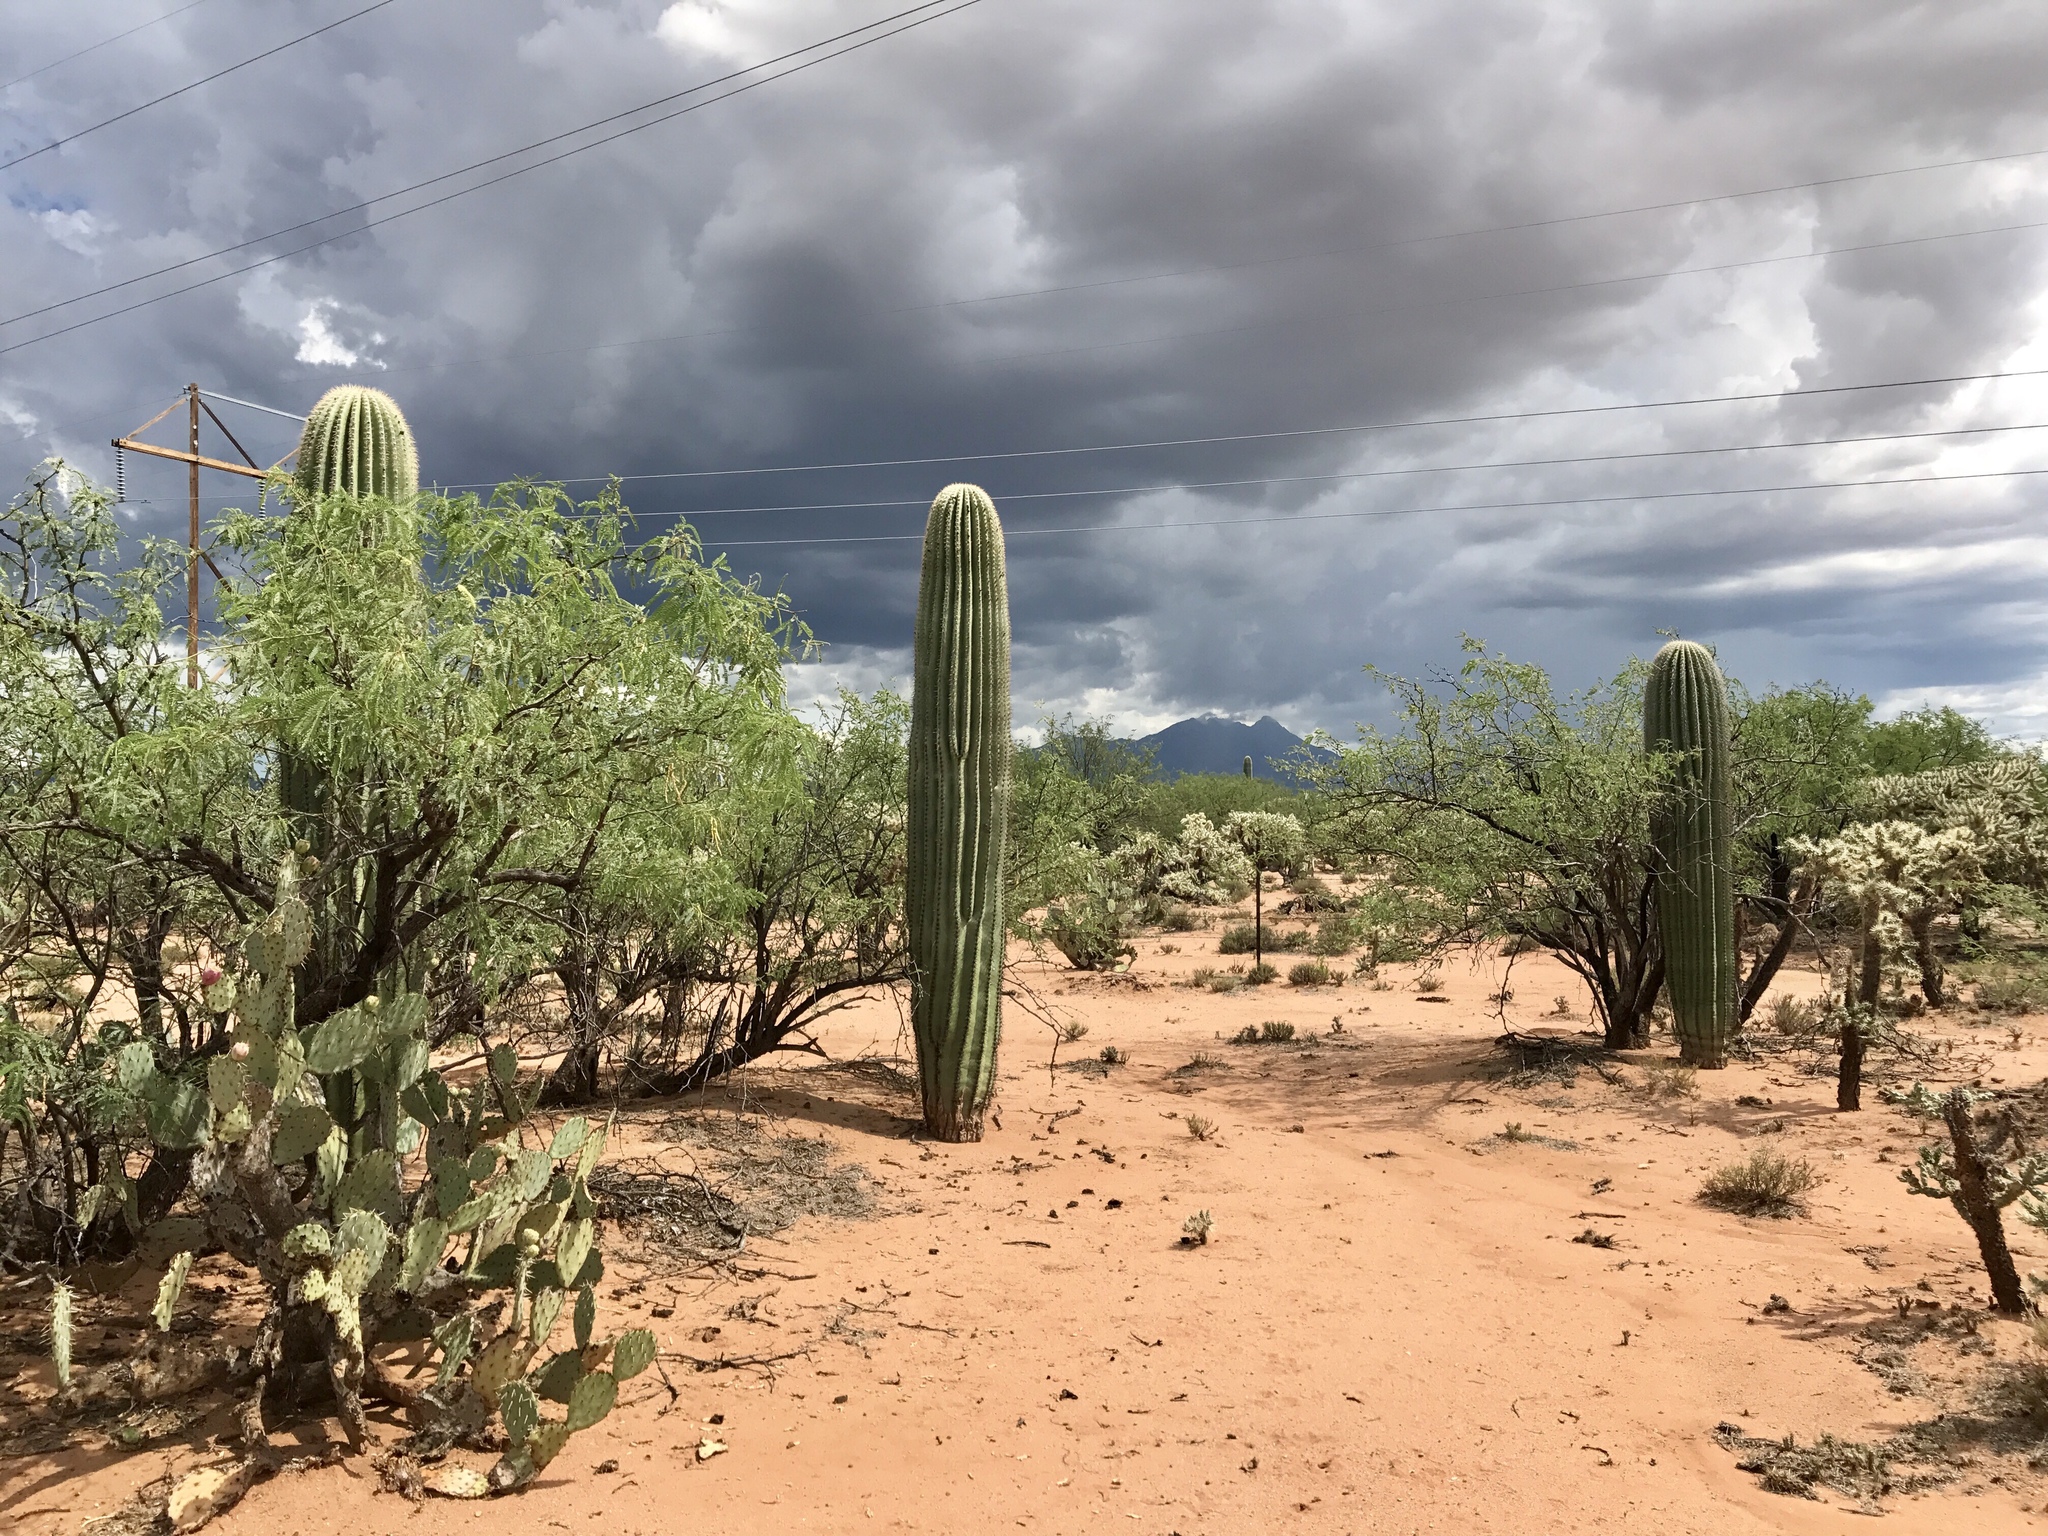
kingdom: Plantae
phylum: Tracheophyta
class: Magnoliopsida
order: Caryophyllales
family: Cactaceae
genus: Carnegiea
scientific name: Carnegiea gigantea
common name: Saguaro
